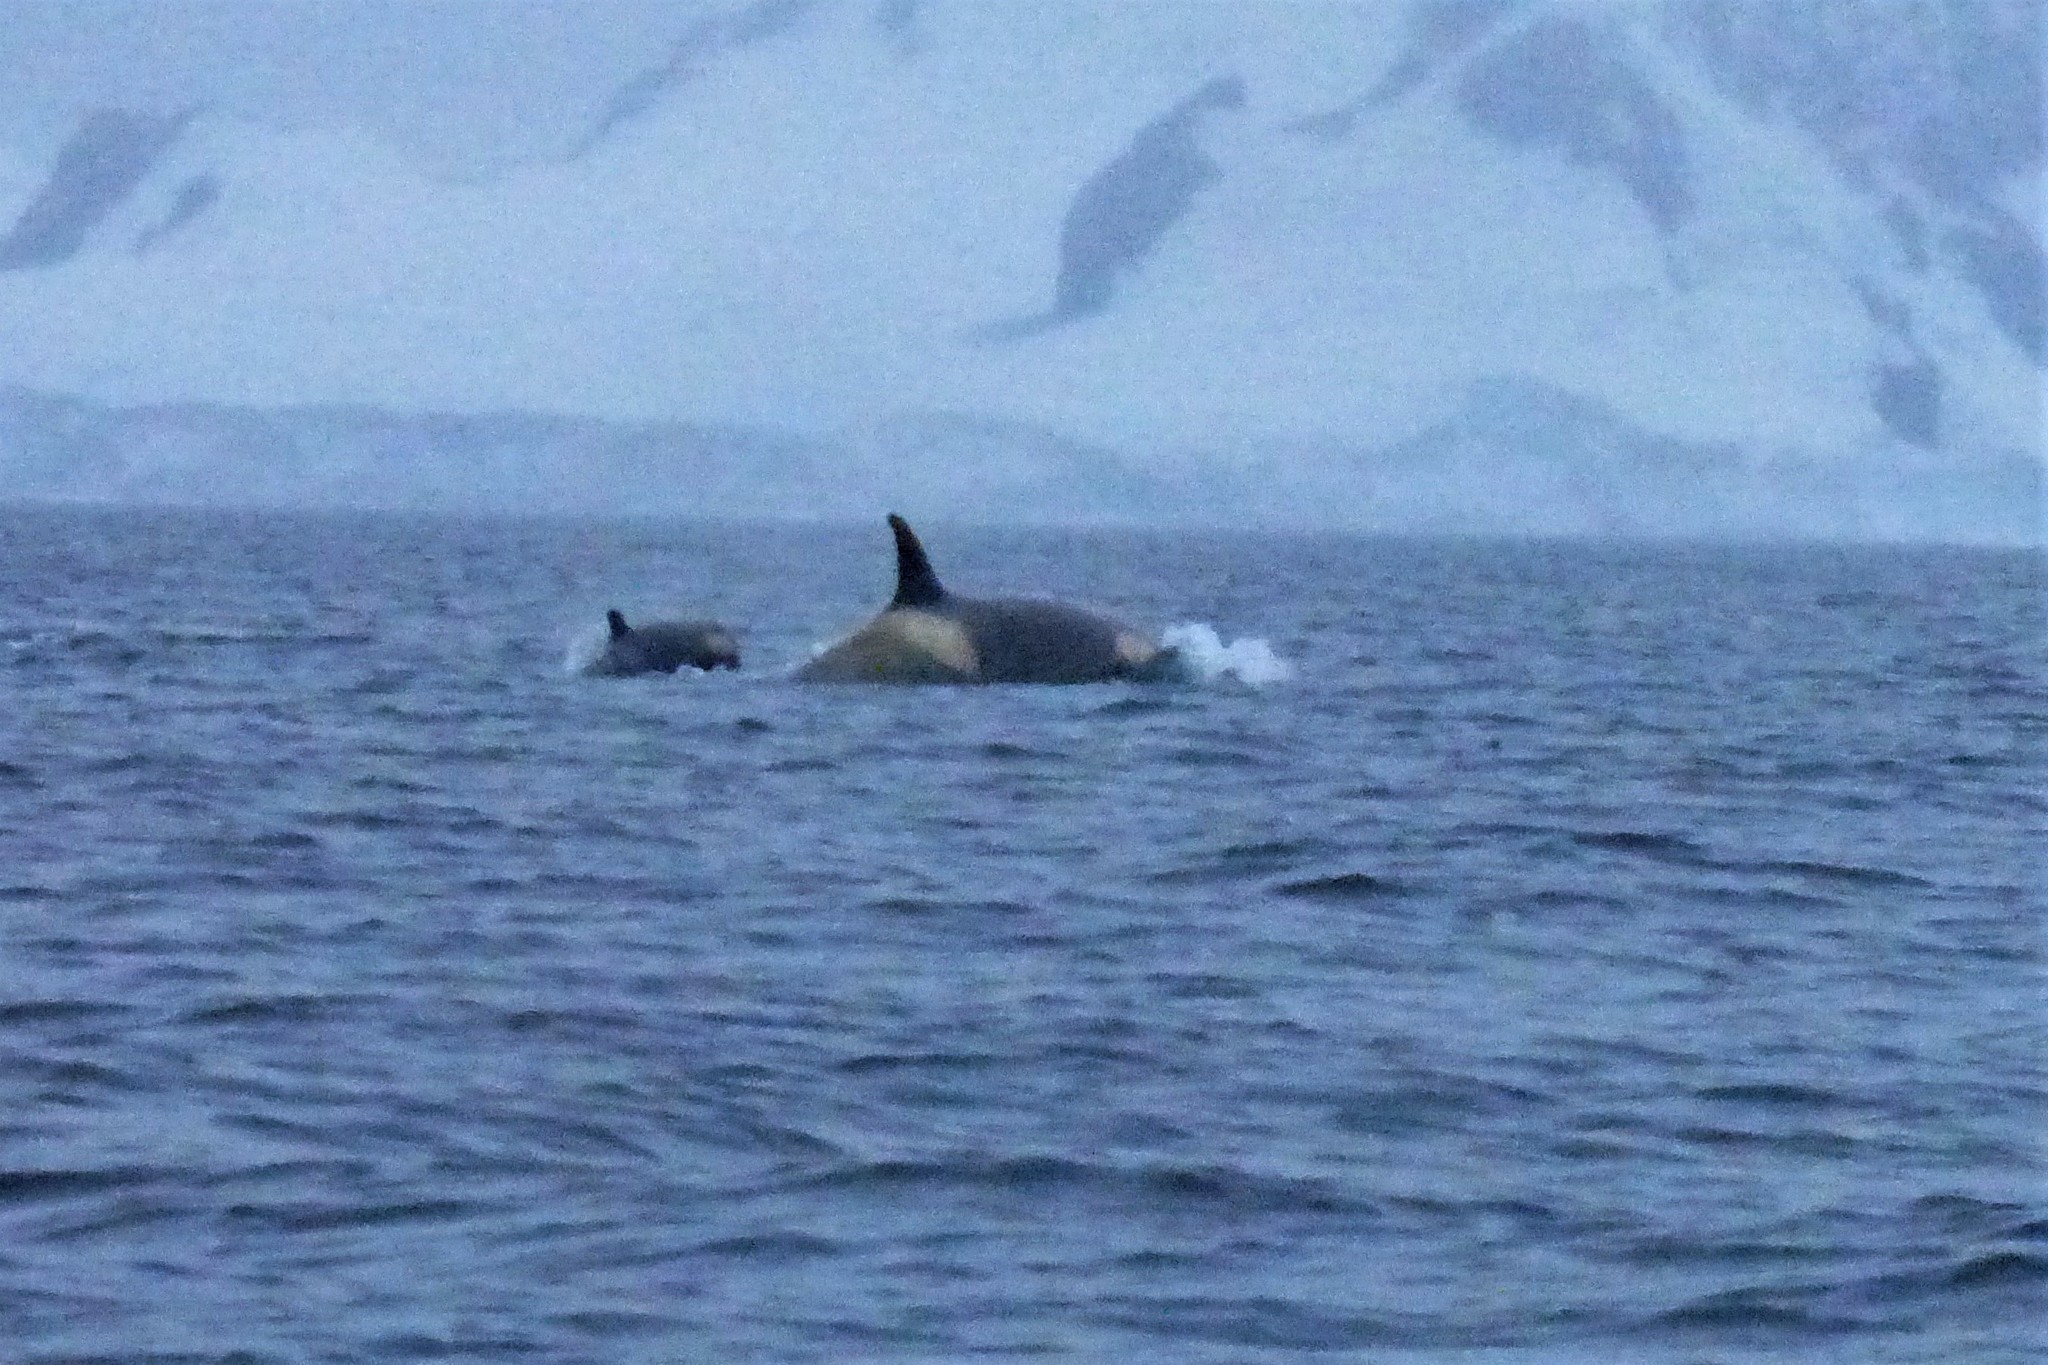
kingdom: Animalia
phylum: Chordata
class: Mammalia
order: Cetacea
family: Delphinidae
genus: Orcinus
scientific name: Orcinus orca
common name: Killer whale
